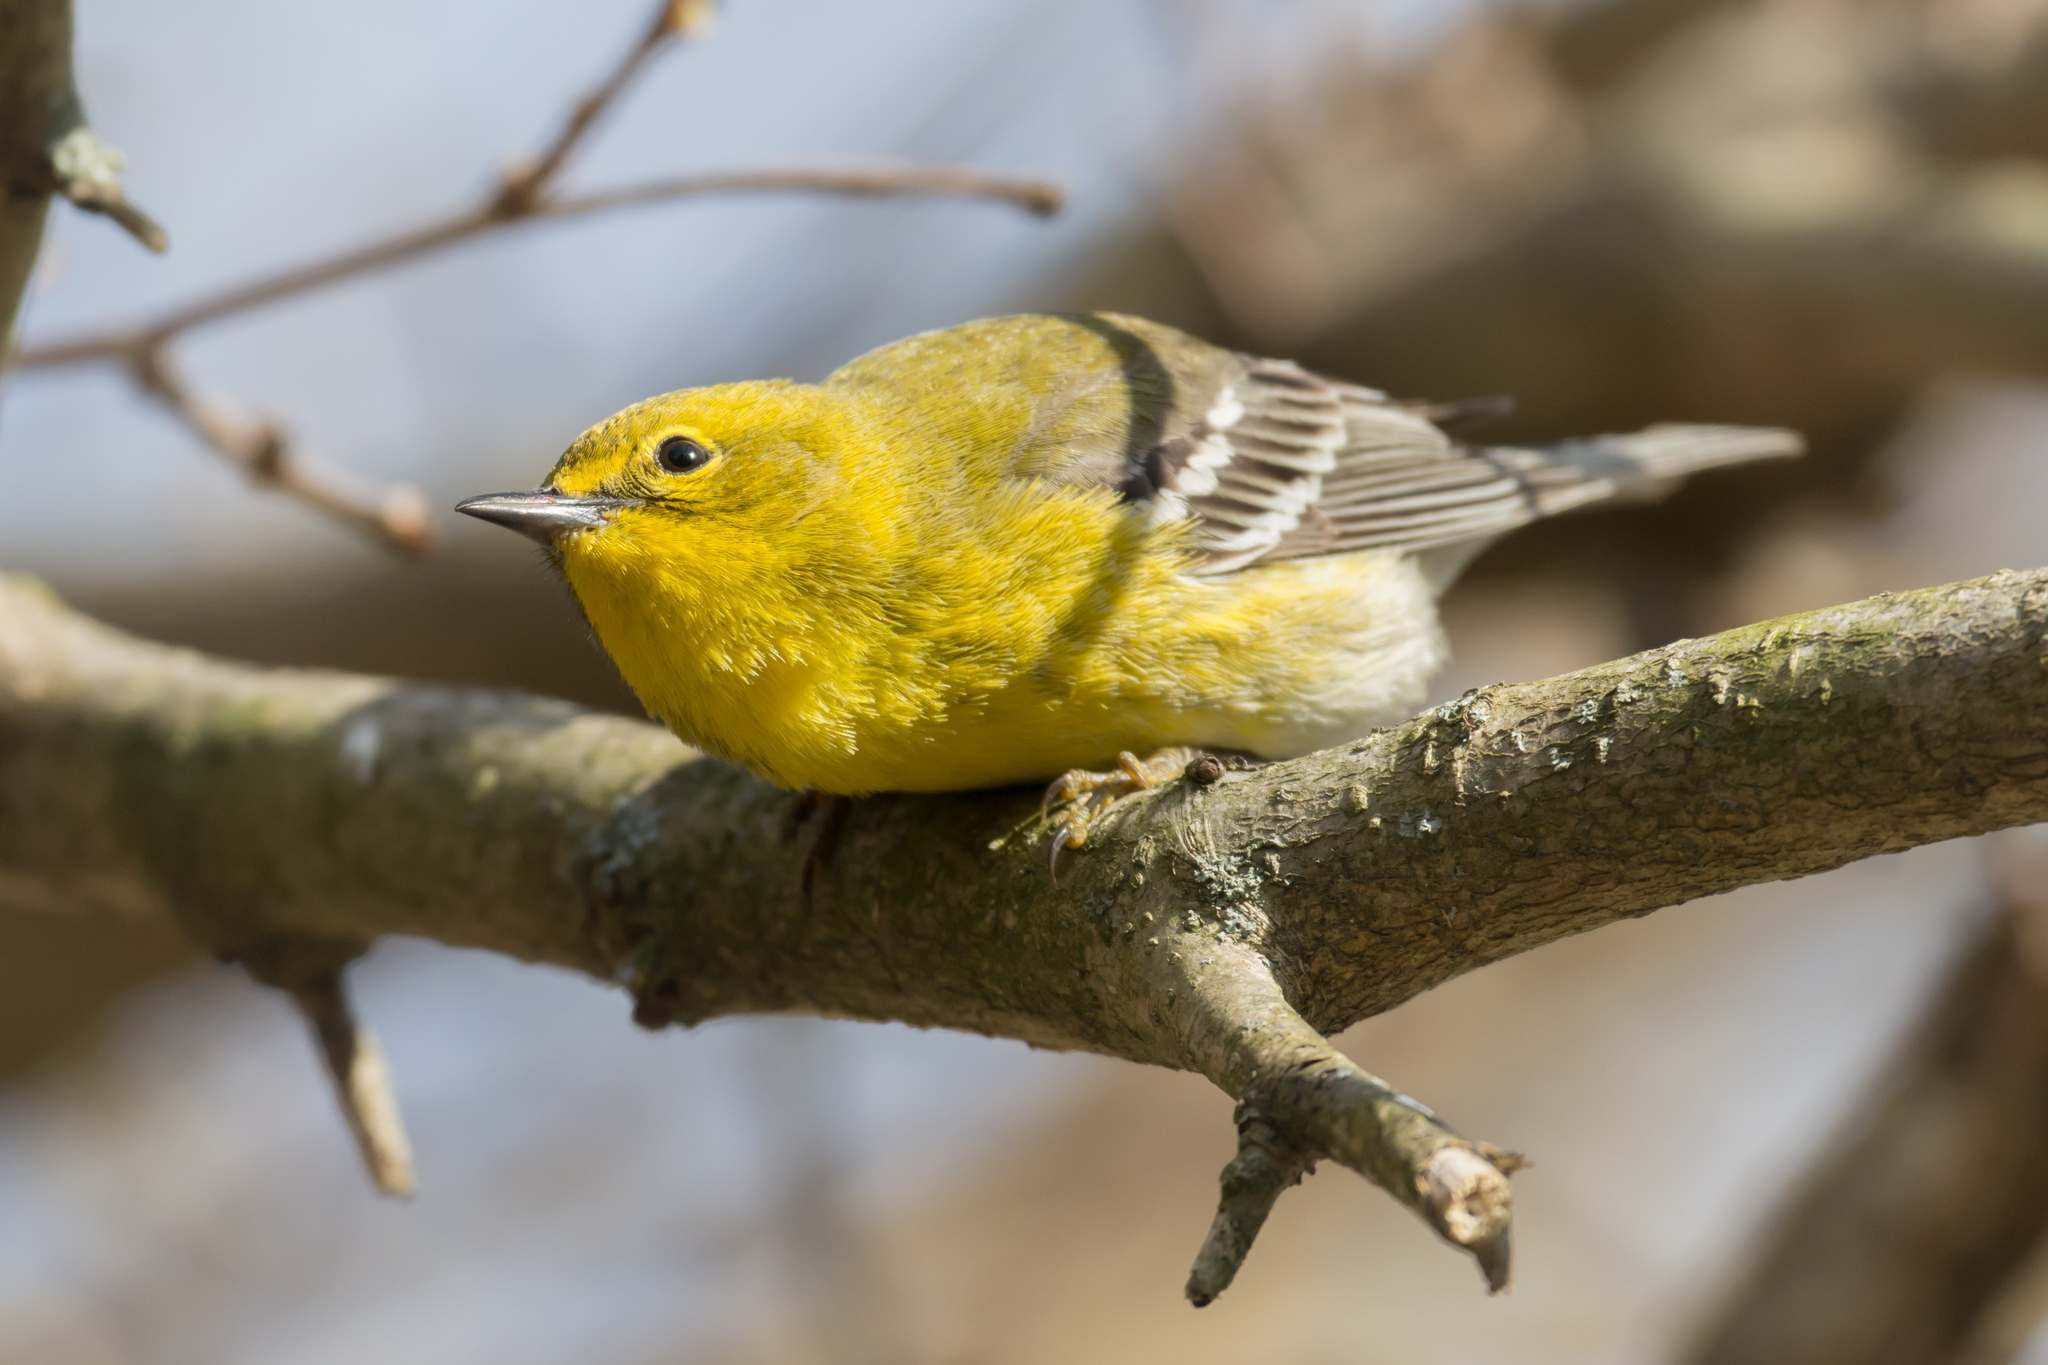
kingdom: Animalia
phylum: Chordata
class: Aves
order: Passeriformes
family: Parulidae
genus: Setophaga
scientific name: Setophaga pinus
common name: Pine warbler
